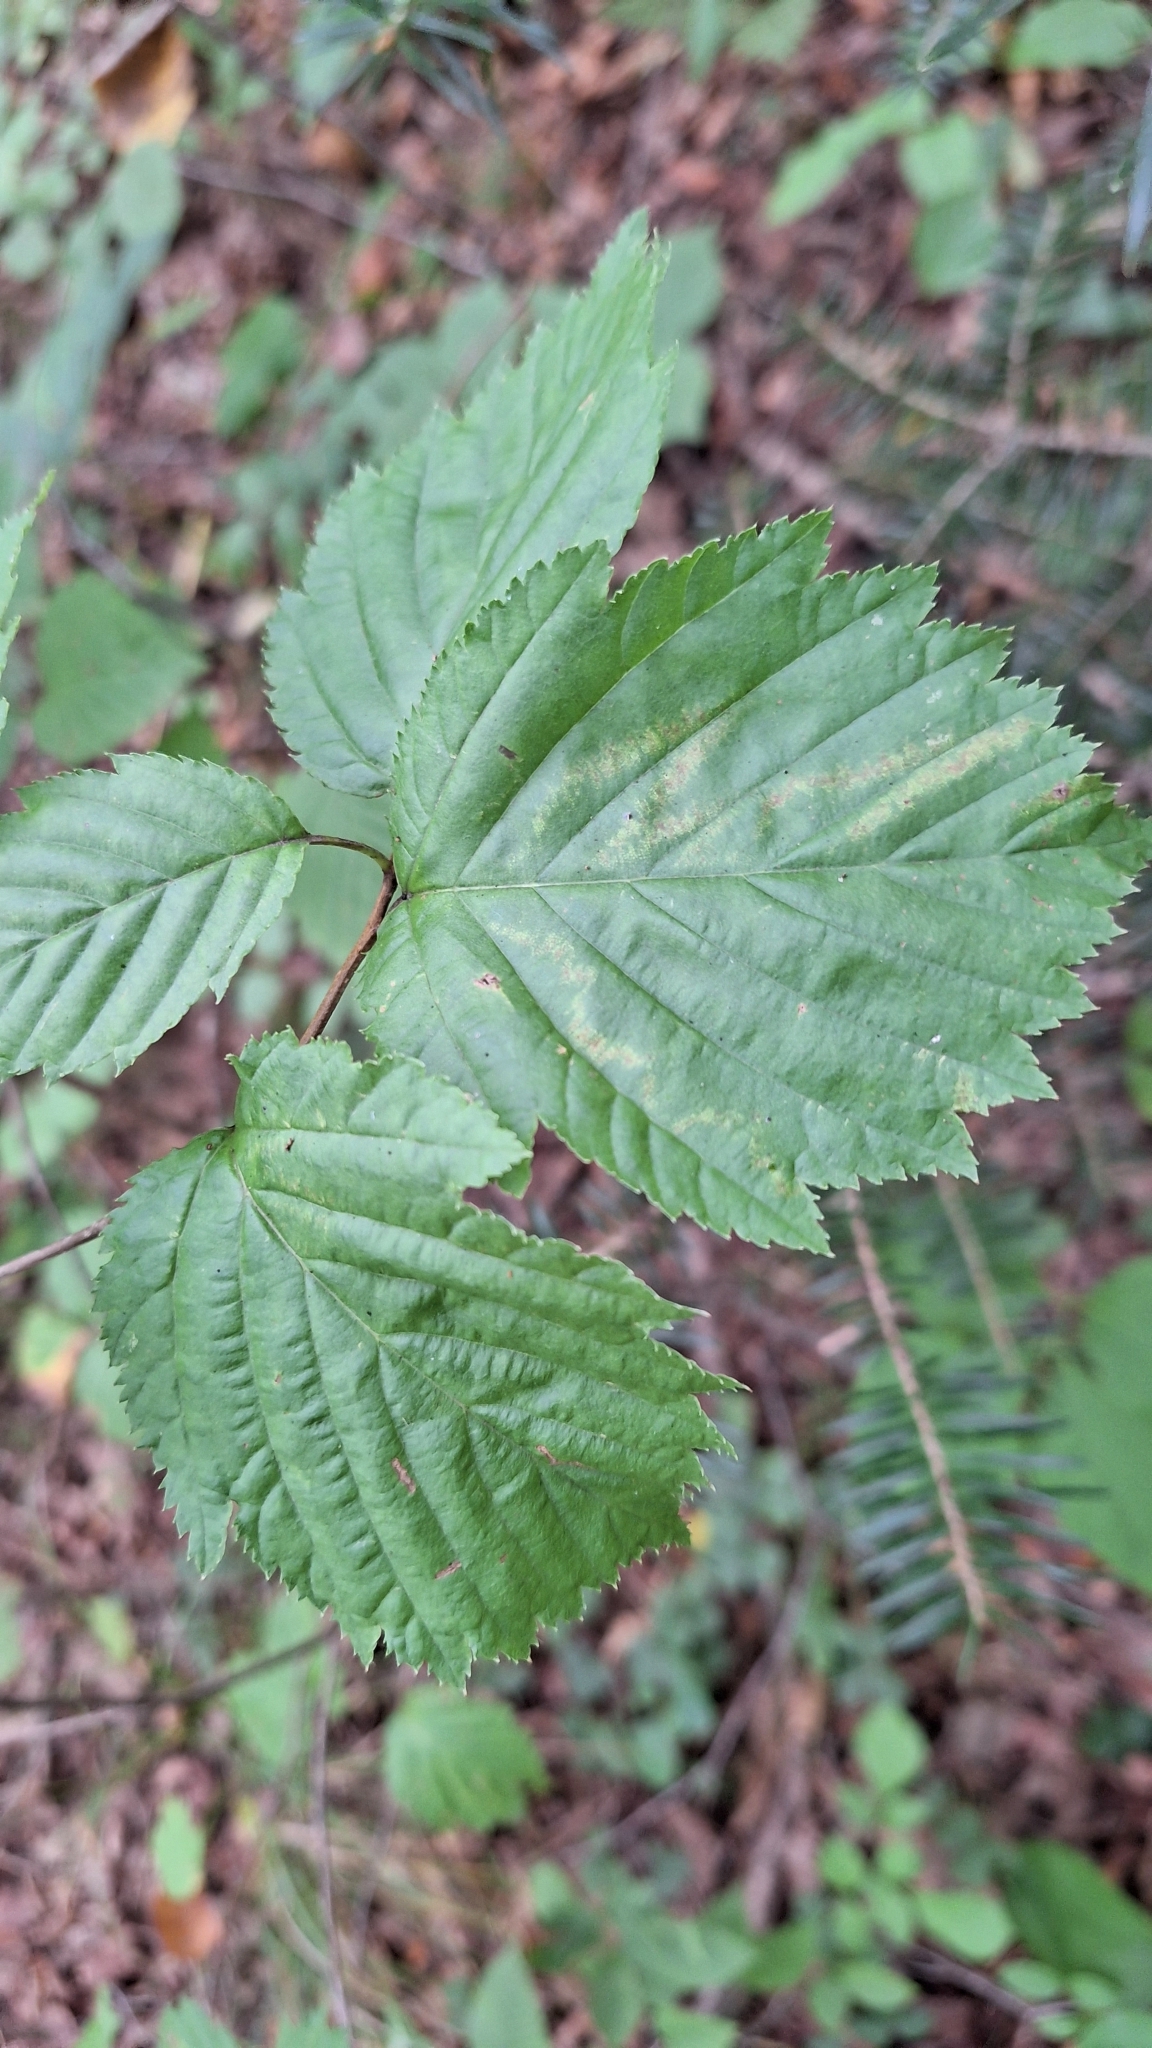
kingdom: Plantae
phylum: Tracheophyta
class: Magnoliopsida
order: Rosales
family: Rosaceae
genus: Sorbus
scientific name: Sorbus alnifolia
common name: Mountain-ash
